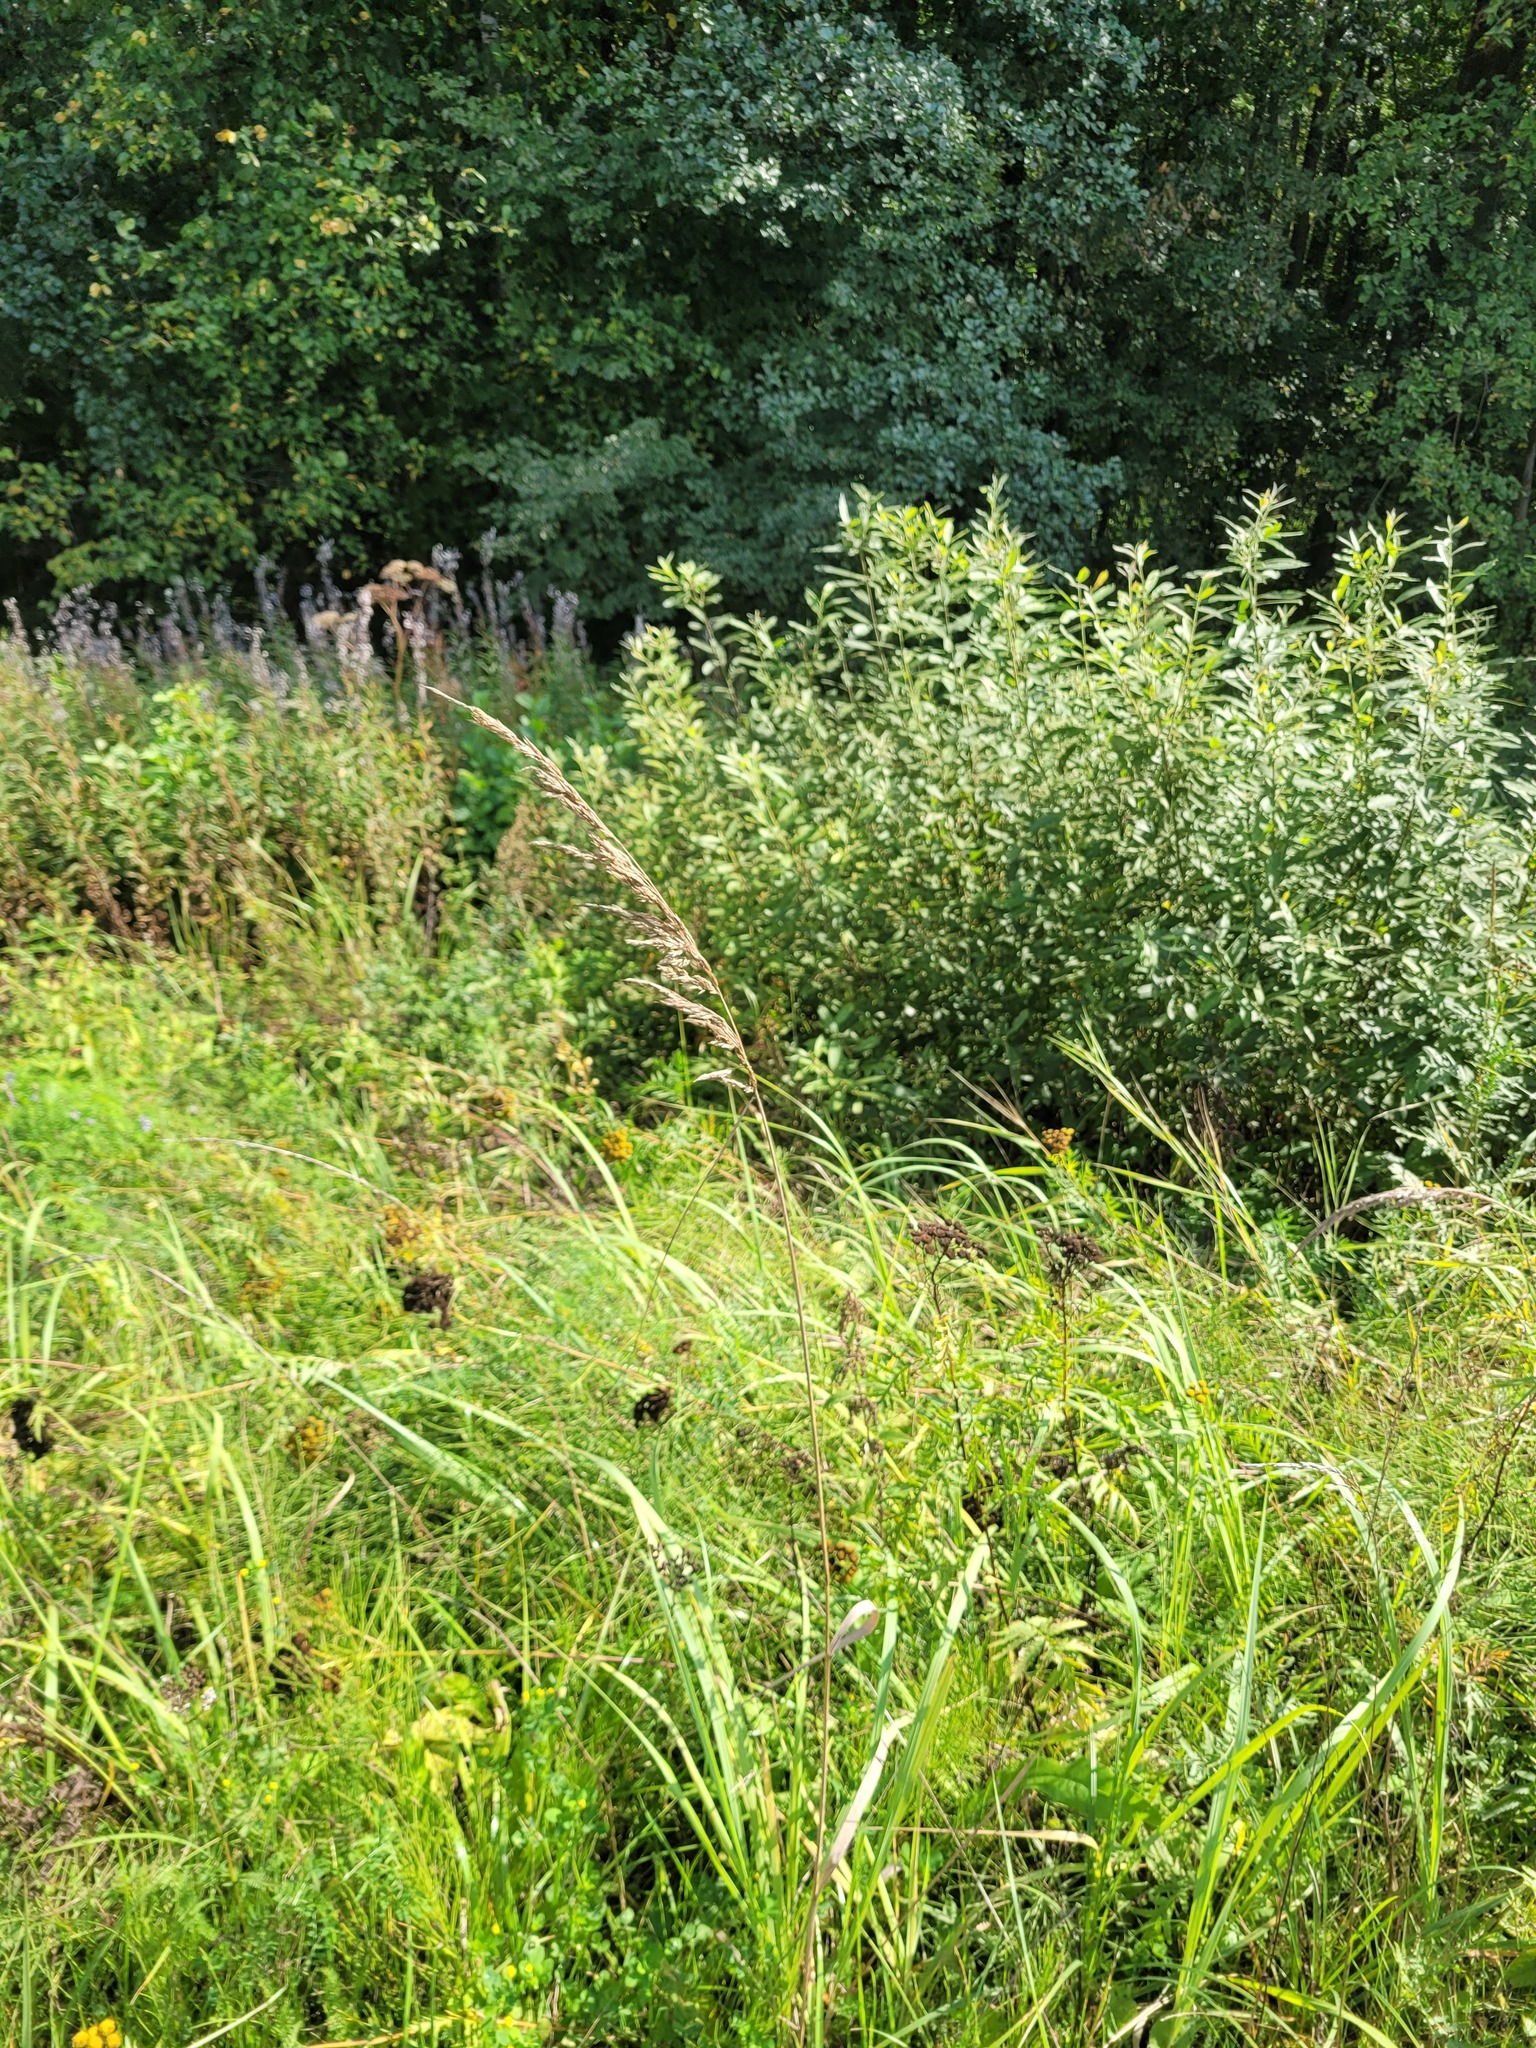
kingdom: Plantae
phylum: Tracheophyta
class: Liliopsida
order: Poales
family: Poaceae
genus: Calamagrostis
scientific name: Calamagrostis epigejos
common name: Wood small-reed
